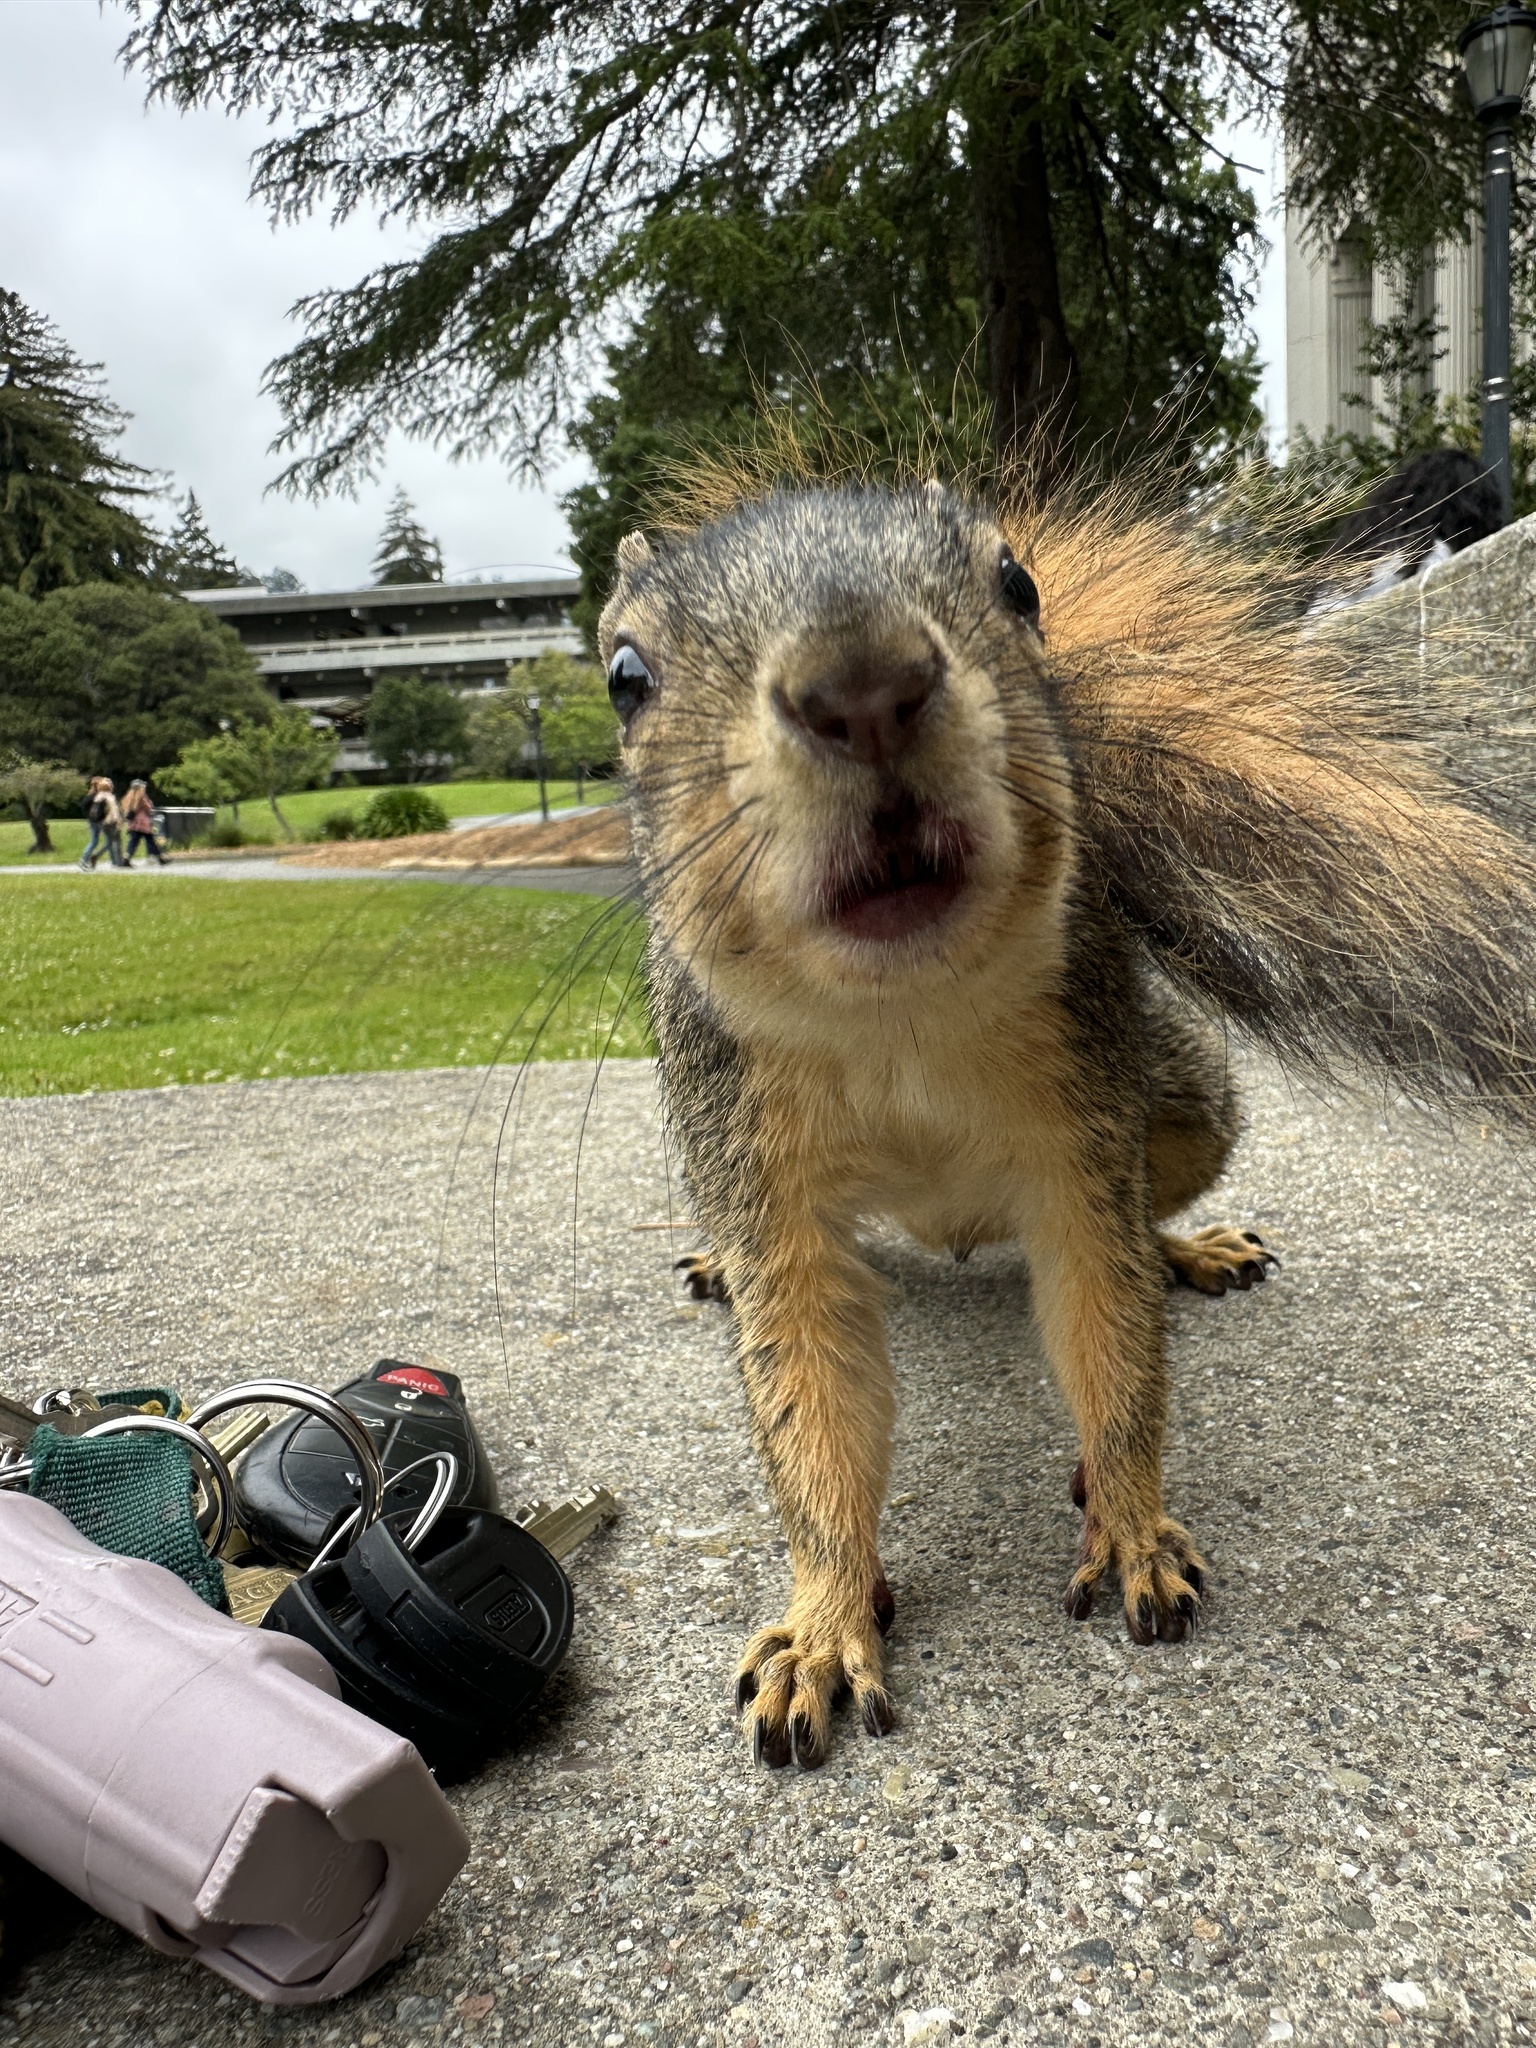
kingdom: Animalia
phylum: Chordata
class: Mammalia
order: Rodentia
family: Sciuridae
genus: Sciurus
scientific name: Sciurus niger
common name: Fox squirrel
